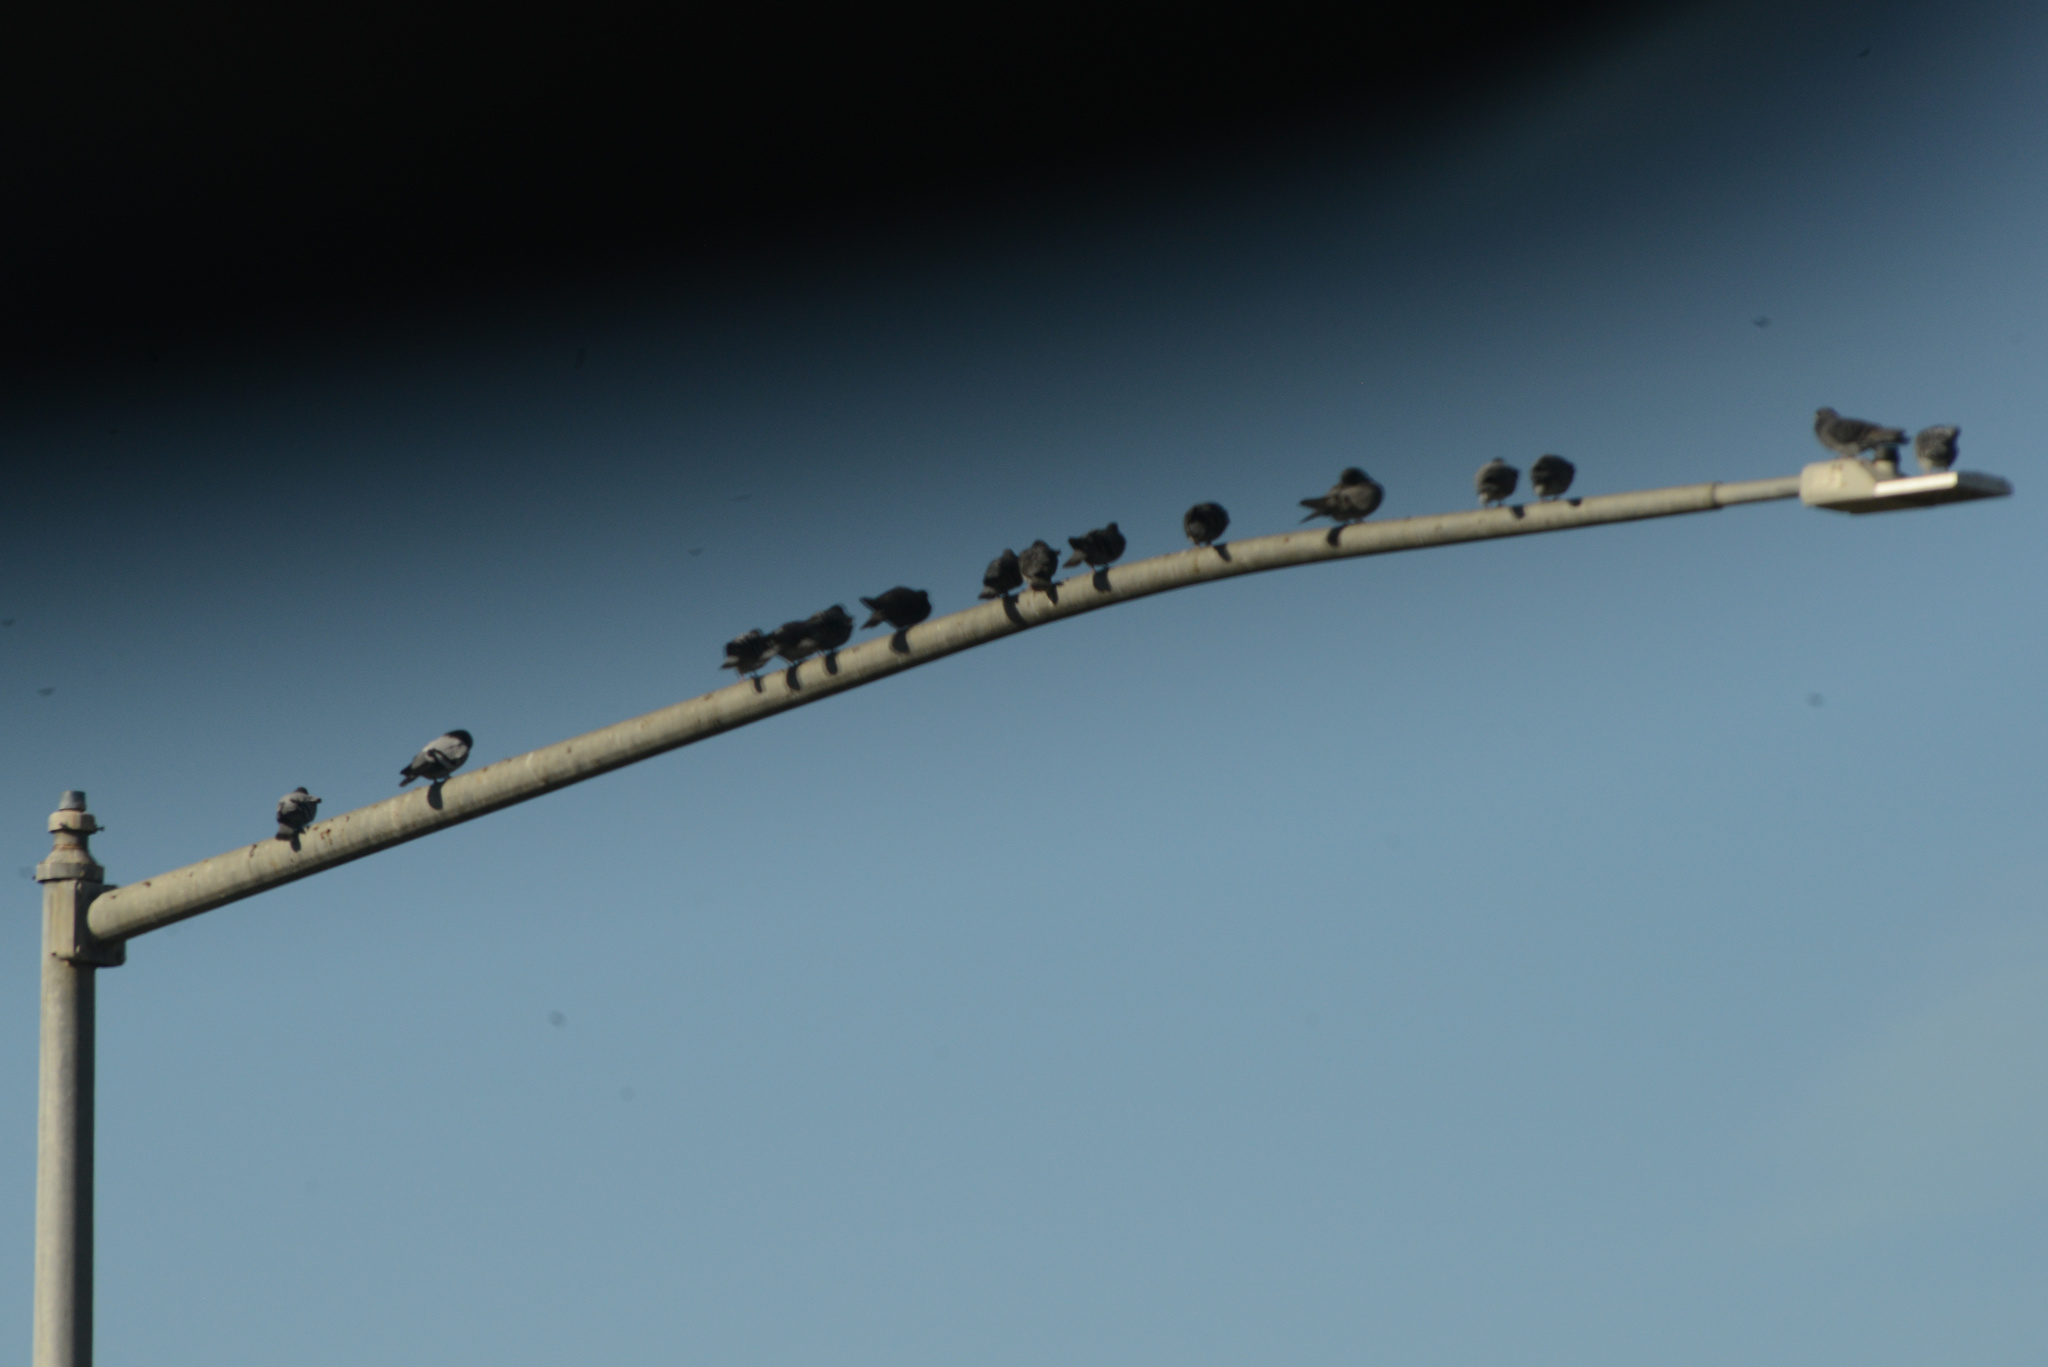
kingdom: Animalia
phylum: Chordata
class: Aves
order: Columbiformes
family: Columbidae
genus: Columba
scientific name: Columba livia
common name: Rock pigeon
